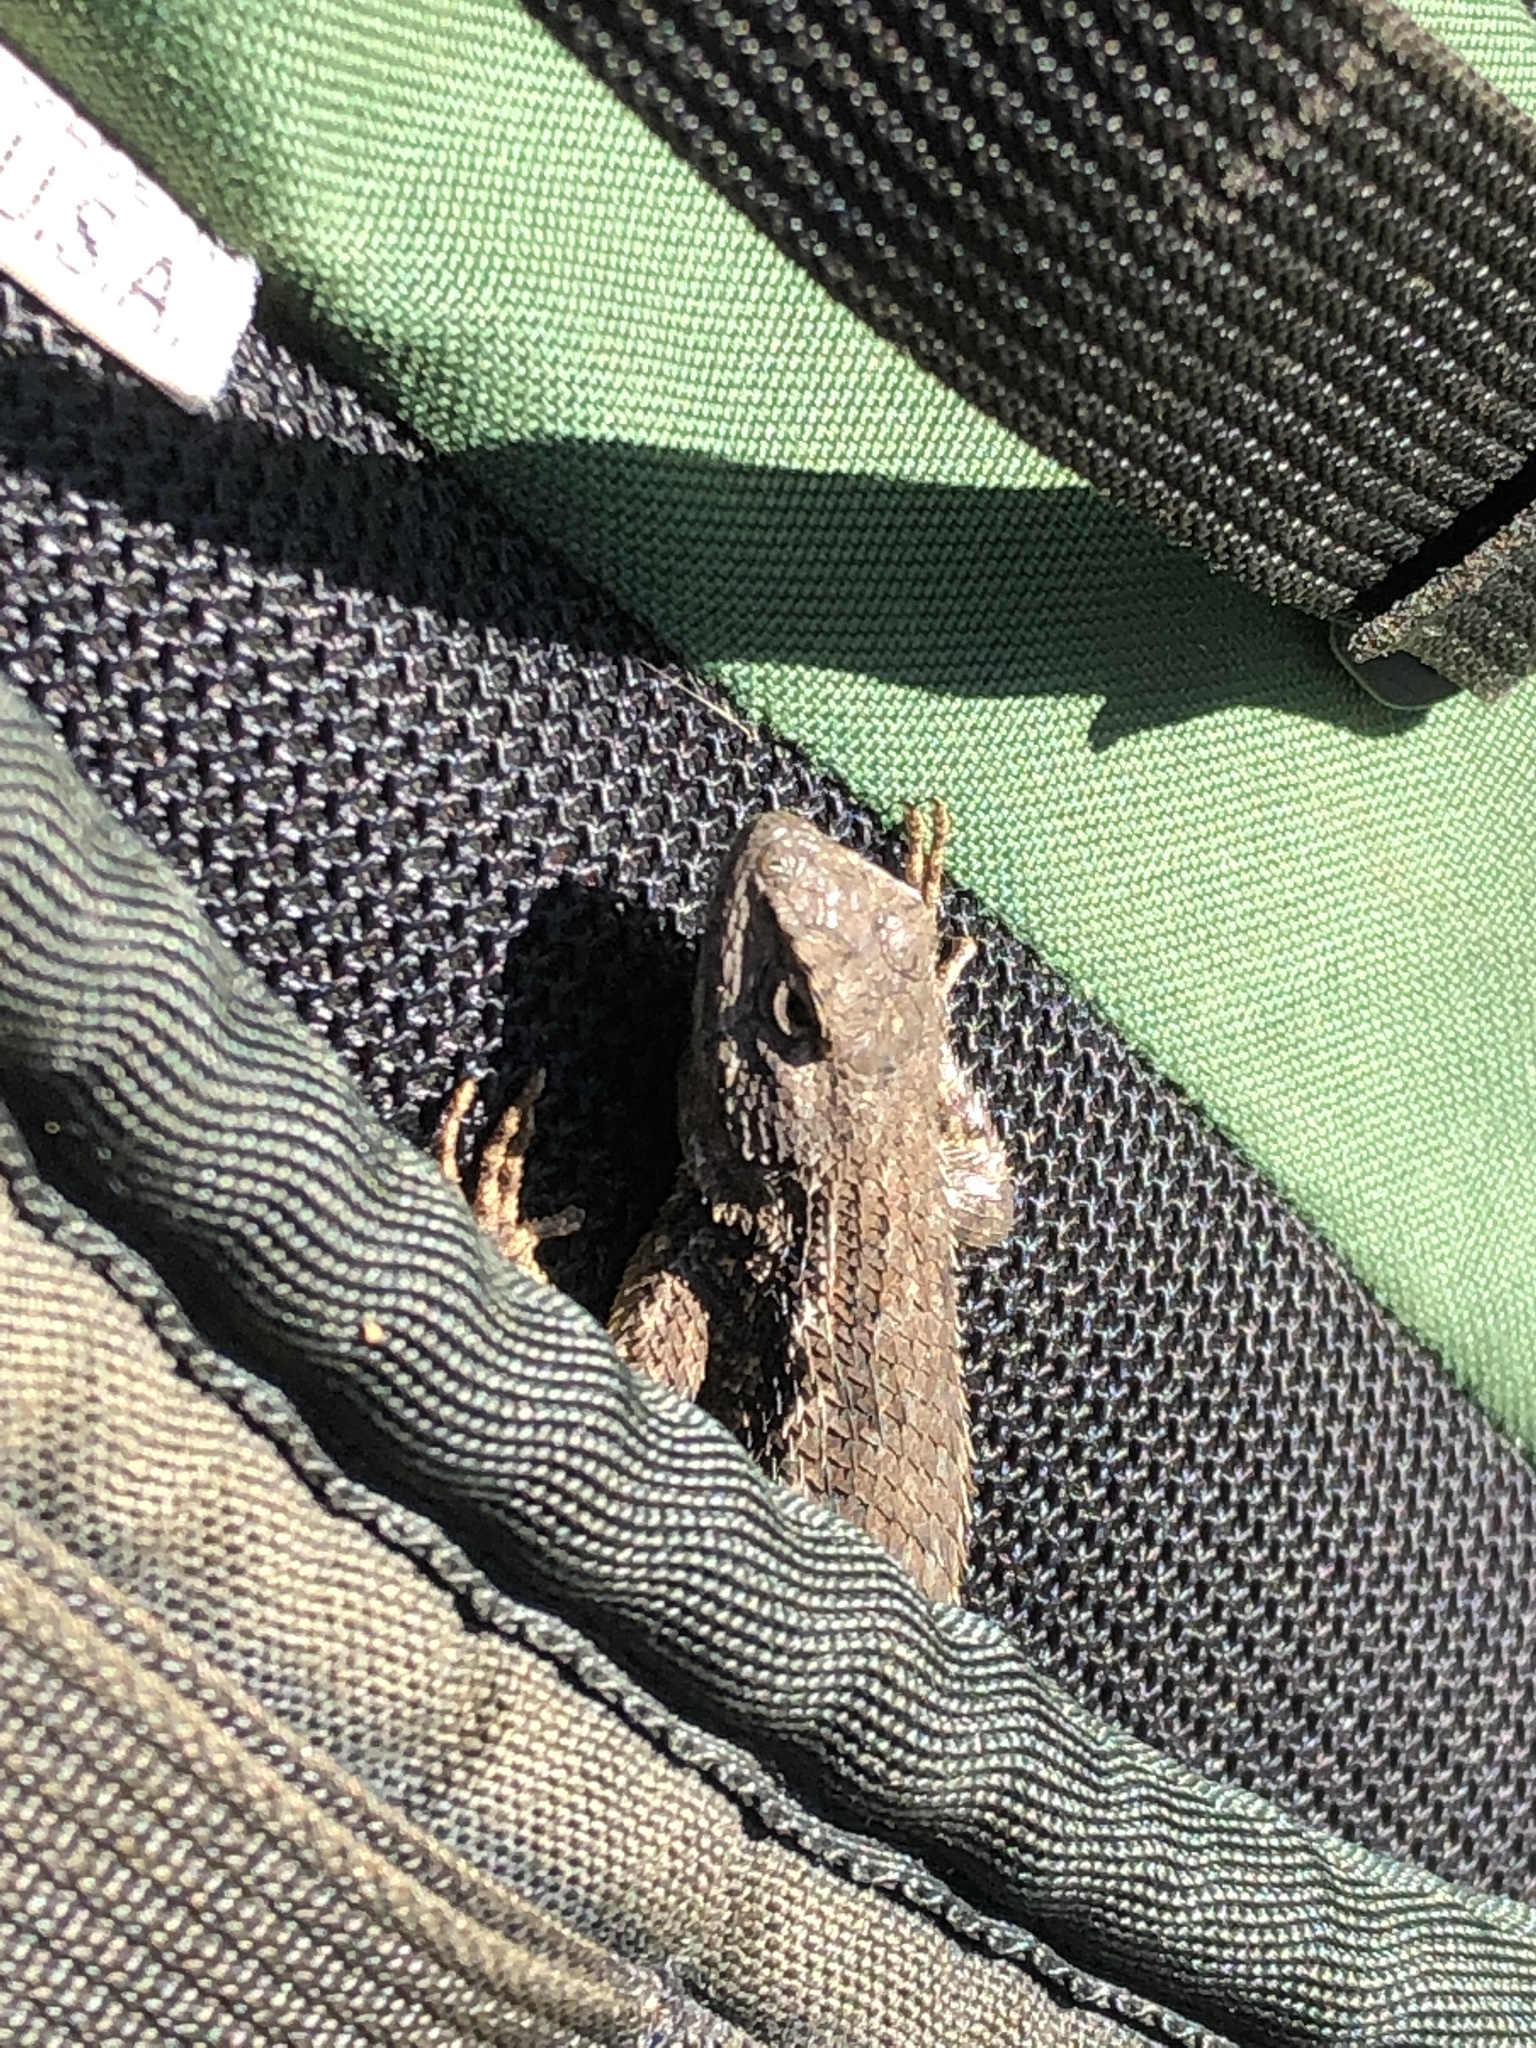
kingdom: Animalia
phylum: Chordata
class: Squamata
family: Phrynosomatidae
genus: Sceloporus
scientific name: Sceloporus occidentalis
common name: Western fence lizard
